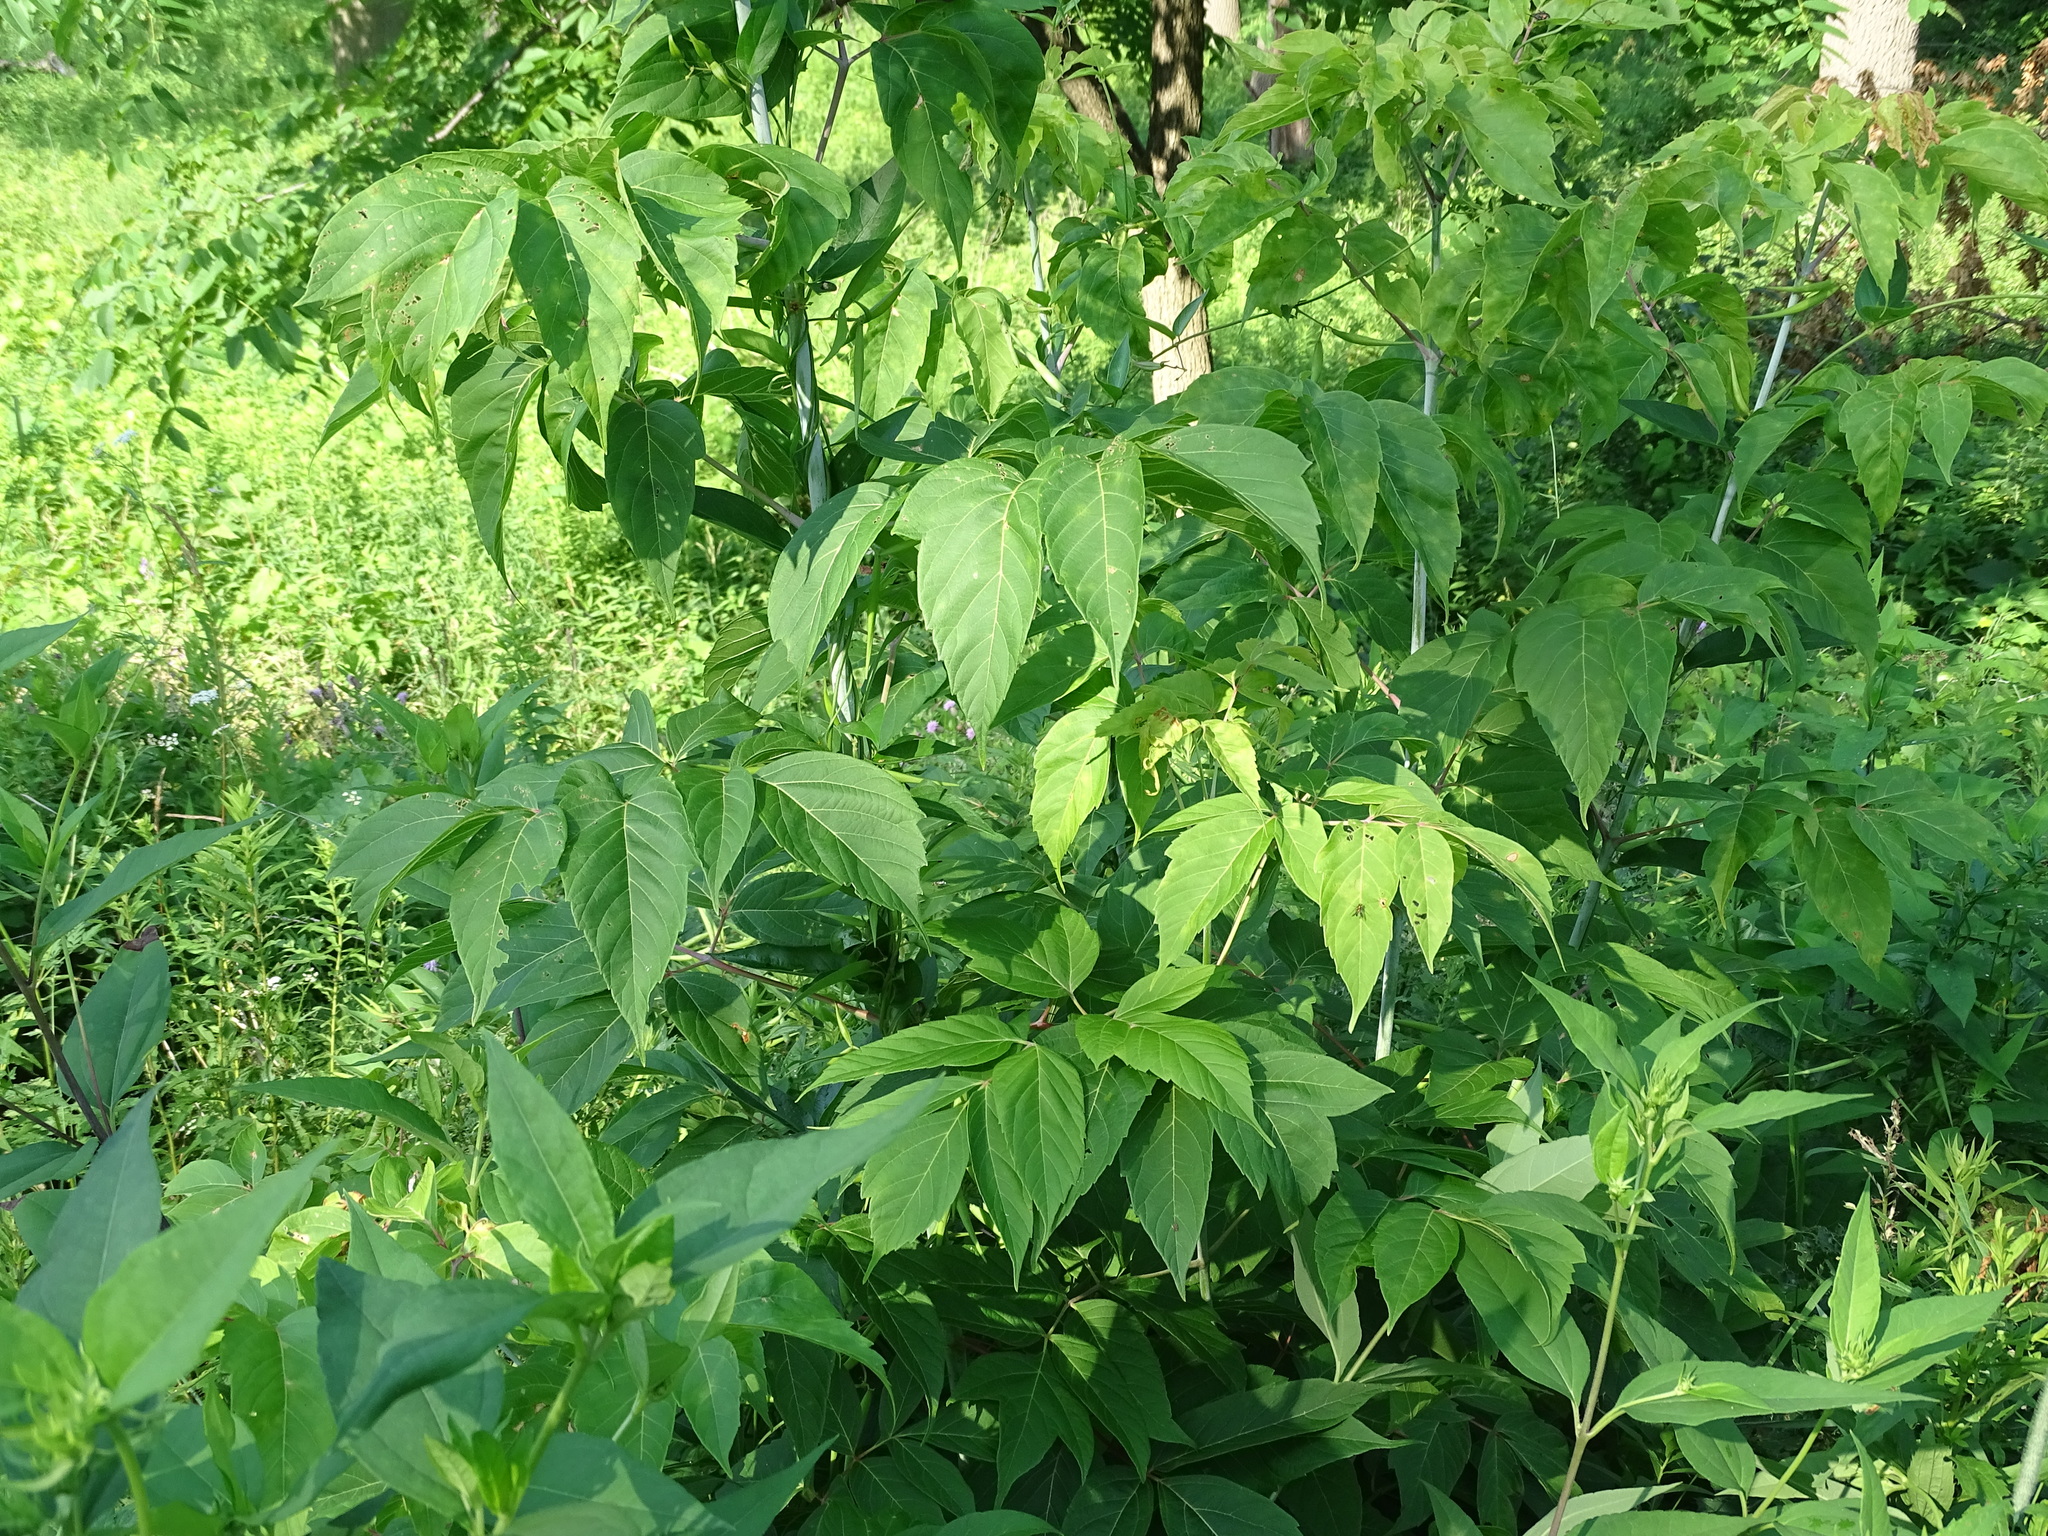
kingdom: Plantae
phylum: Tracheophyta
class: Magnoliopsida
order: Sapindales
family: Sapindaceae
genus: Acer
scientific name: Acer negundo
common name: Ashleaf maple
